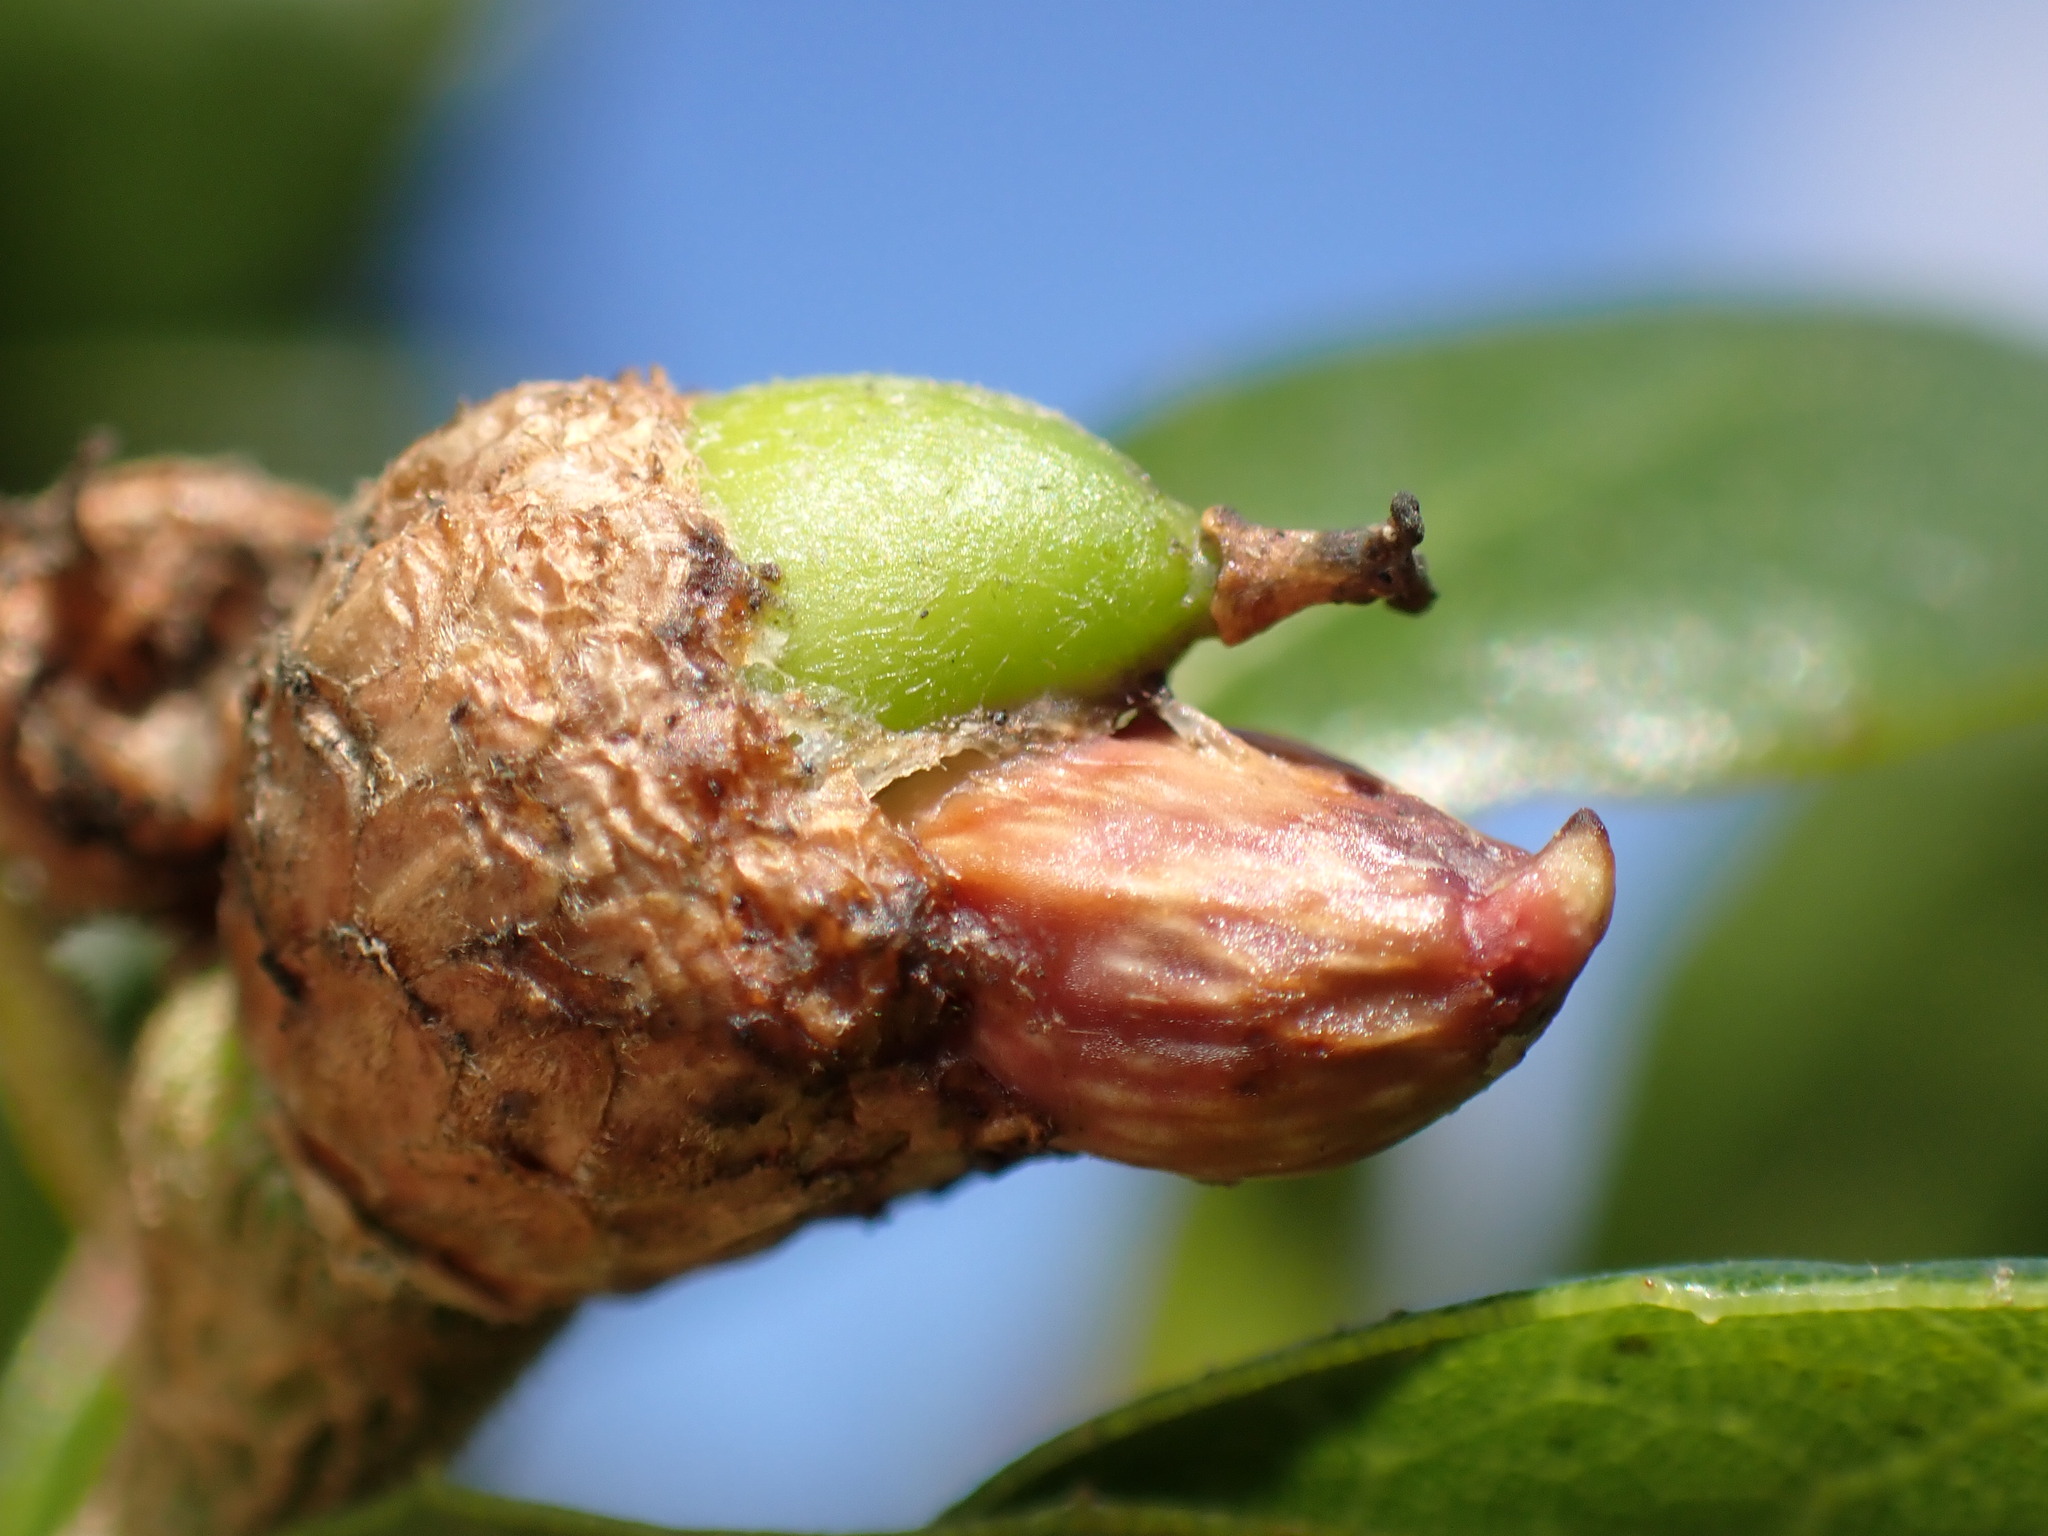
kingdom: Animalia
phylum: Arthropoda
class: Insecta
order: Hymenoptera
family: Cynipidae
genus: Callirhytis
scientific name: Callirhytis
